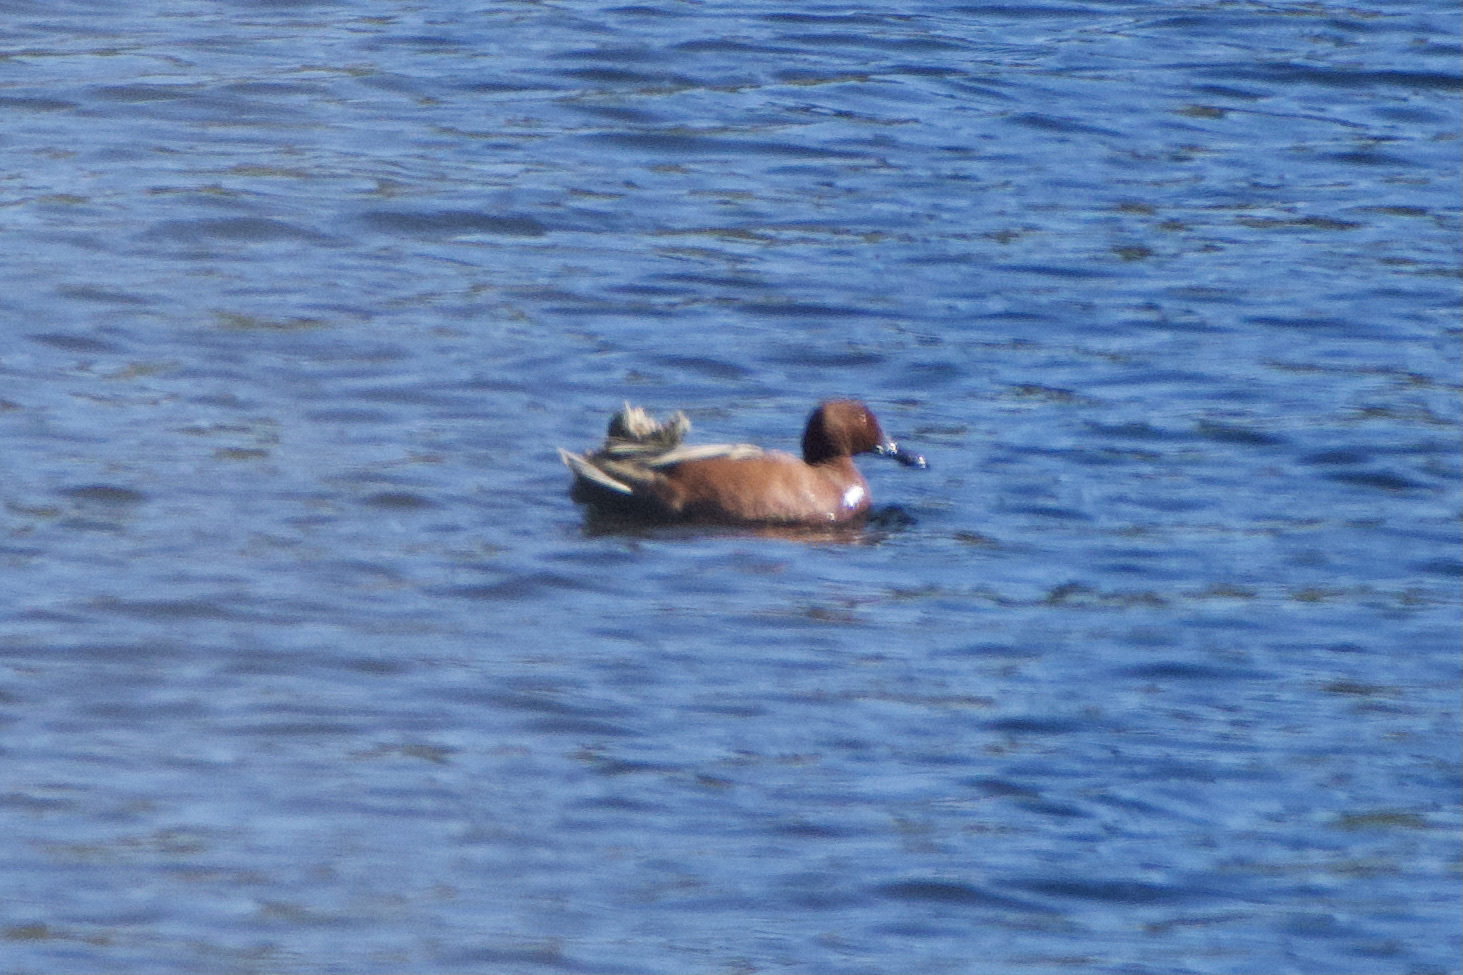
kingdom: Animalia
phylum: Chordata
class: Aves
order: Anseriformes
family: Anatidae
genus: Spatula
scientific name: Spatula cyanoptera
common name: Cinnamon teal
